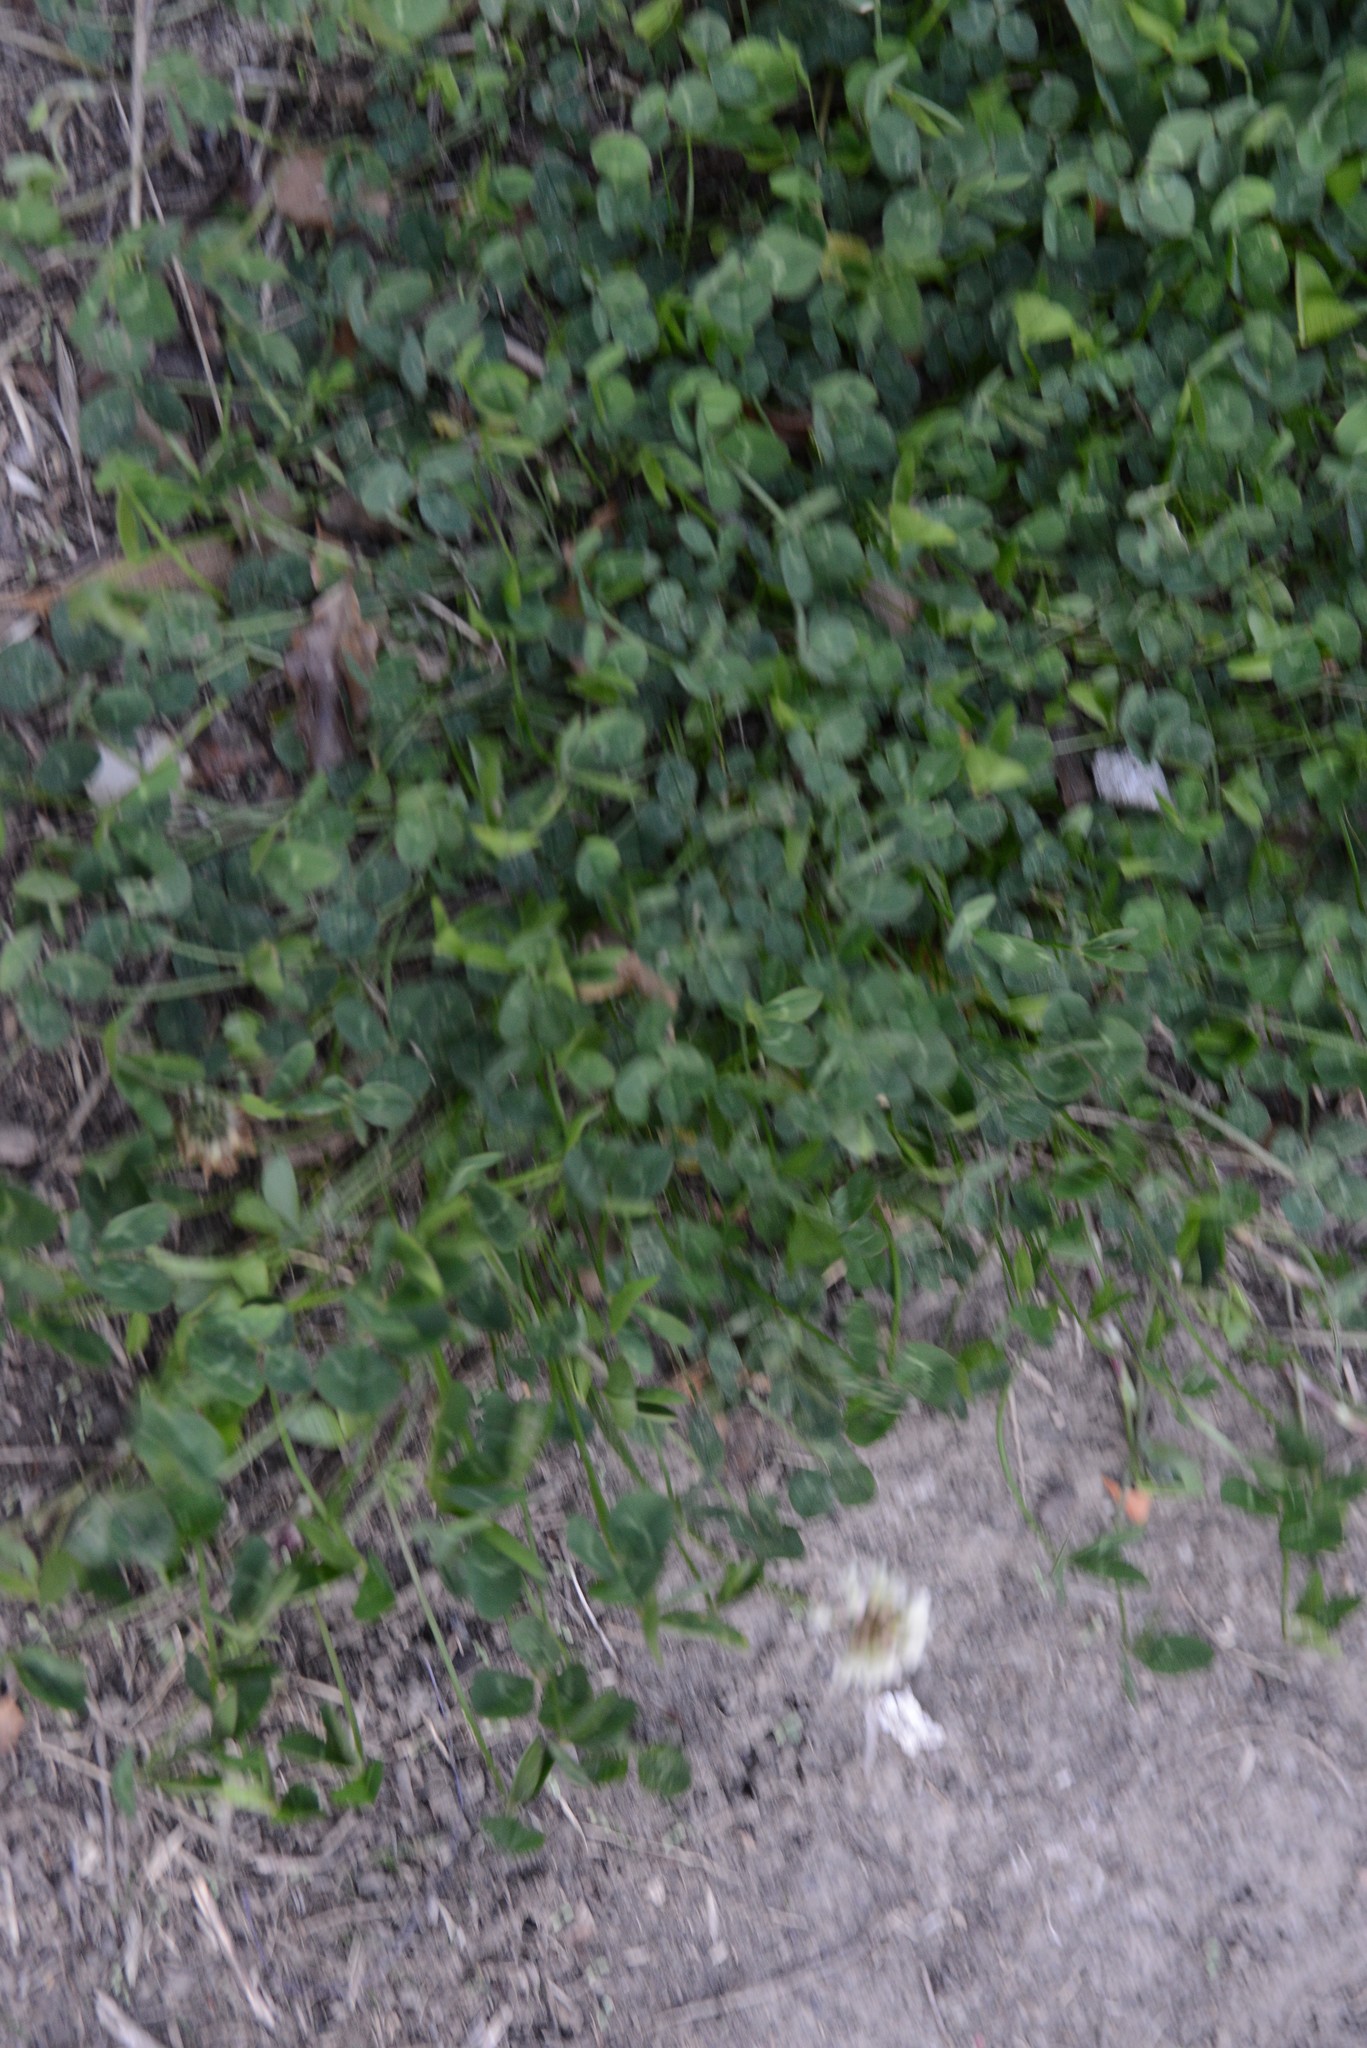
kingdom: Plantae
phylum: Tracheophyta
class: Magnoliopsida
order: Fabales
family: Fabaceae
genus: Trifolium
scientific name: Trifolium repens
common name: White clover
